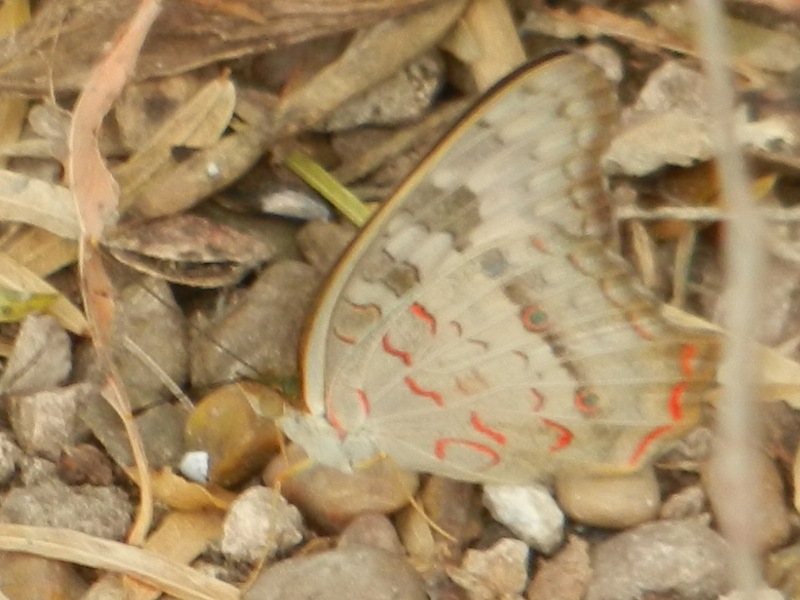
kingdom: Animalia
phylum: Arthropoda
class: Insecta
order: Lepidoptera
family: Nymphalidae
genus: Anartia
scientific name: Anartia jatrophae
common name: White peacock
